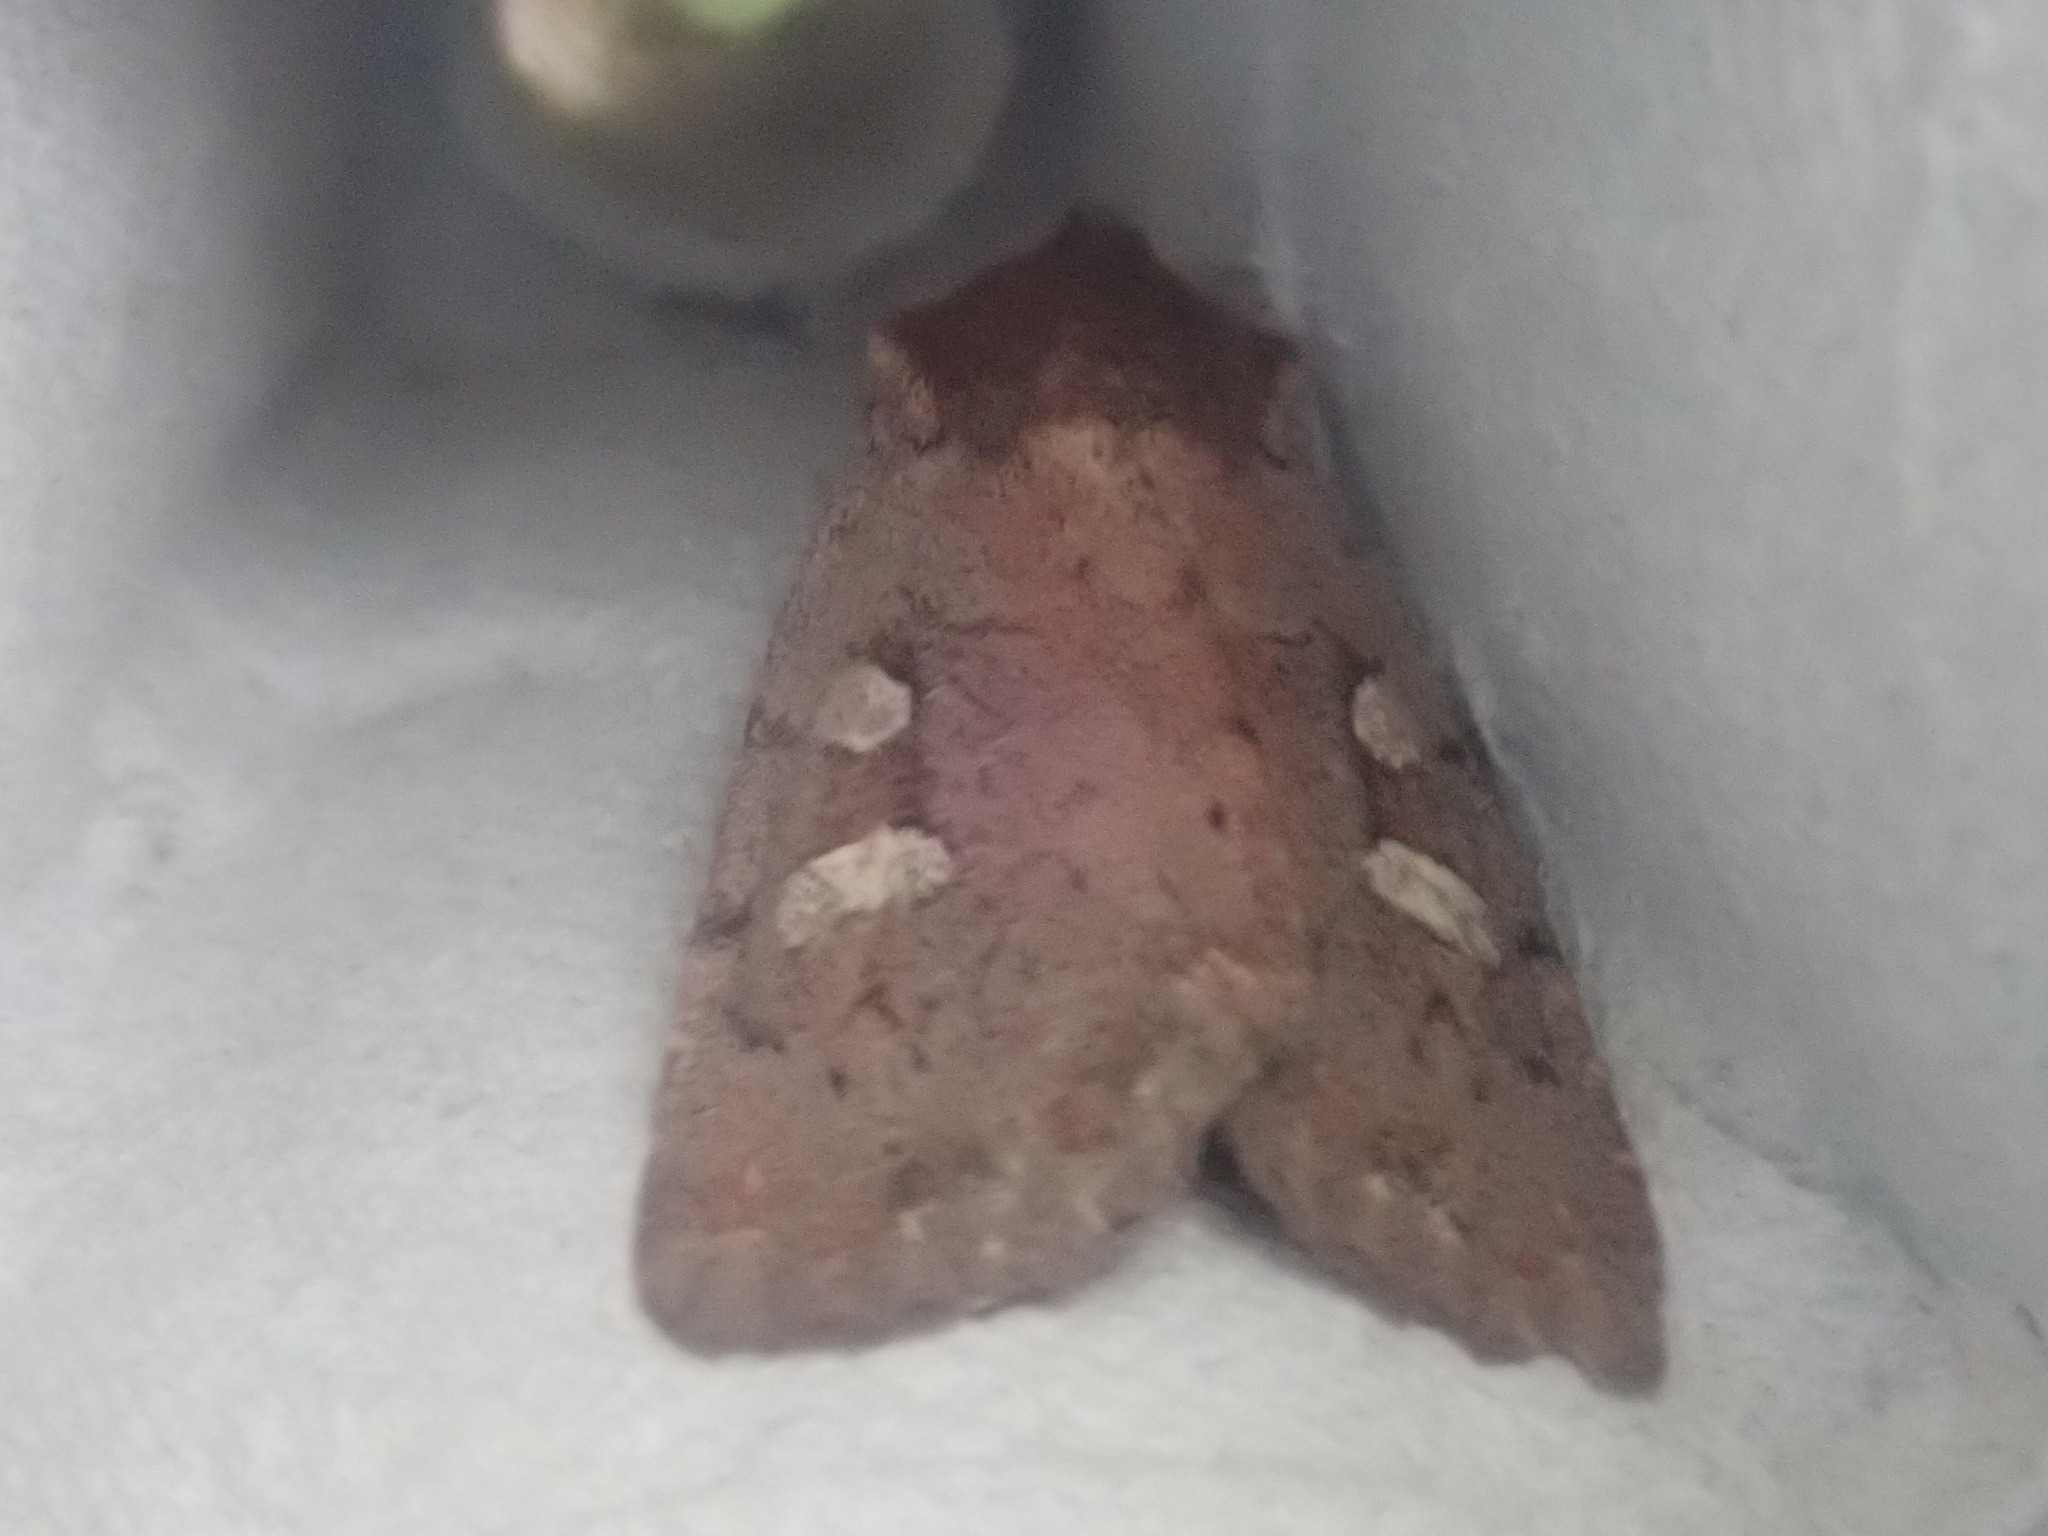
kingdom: Animalia
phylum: Arthropoda
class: Insecta
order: Lepidoptera
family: Noctuidae
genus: Xestia
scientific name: Xestia dilucida
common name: Dull reddish dart
